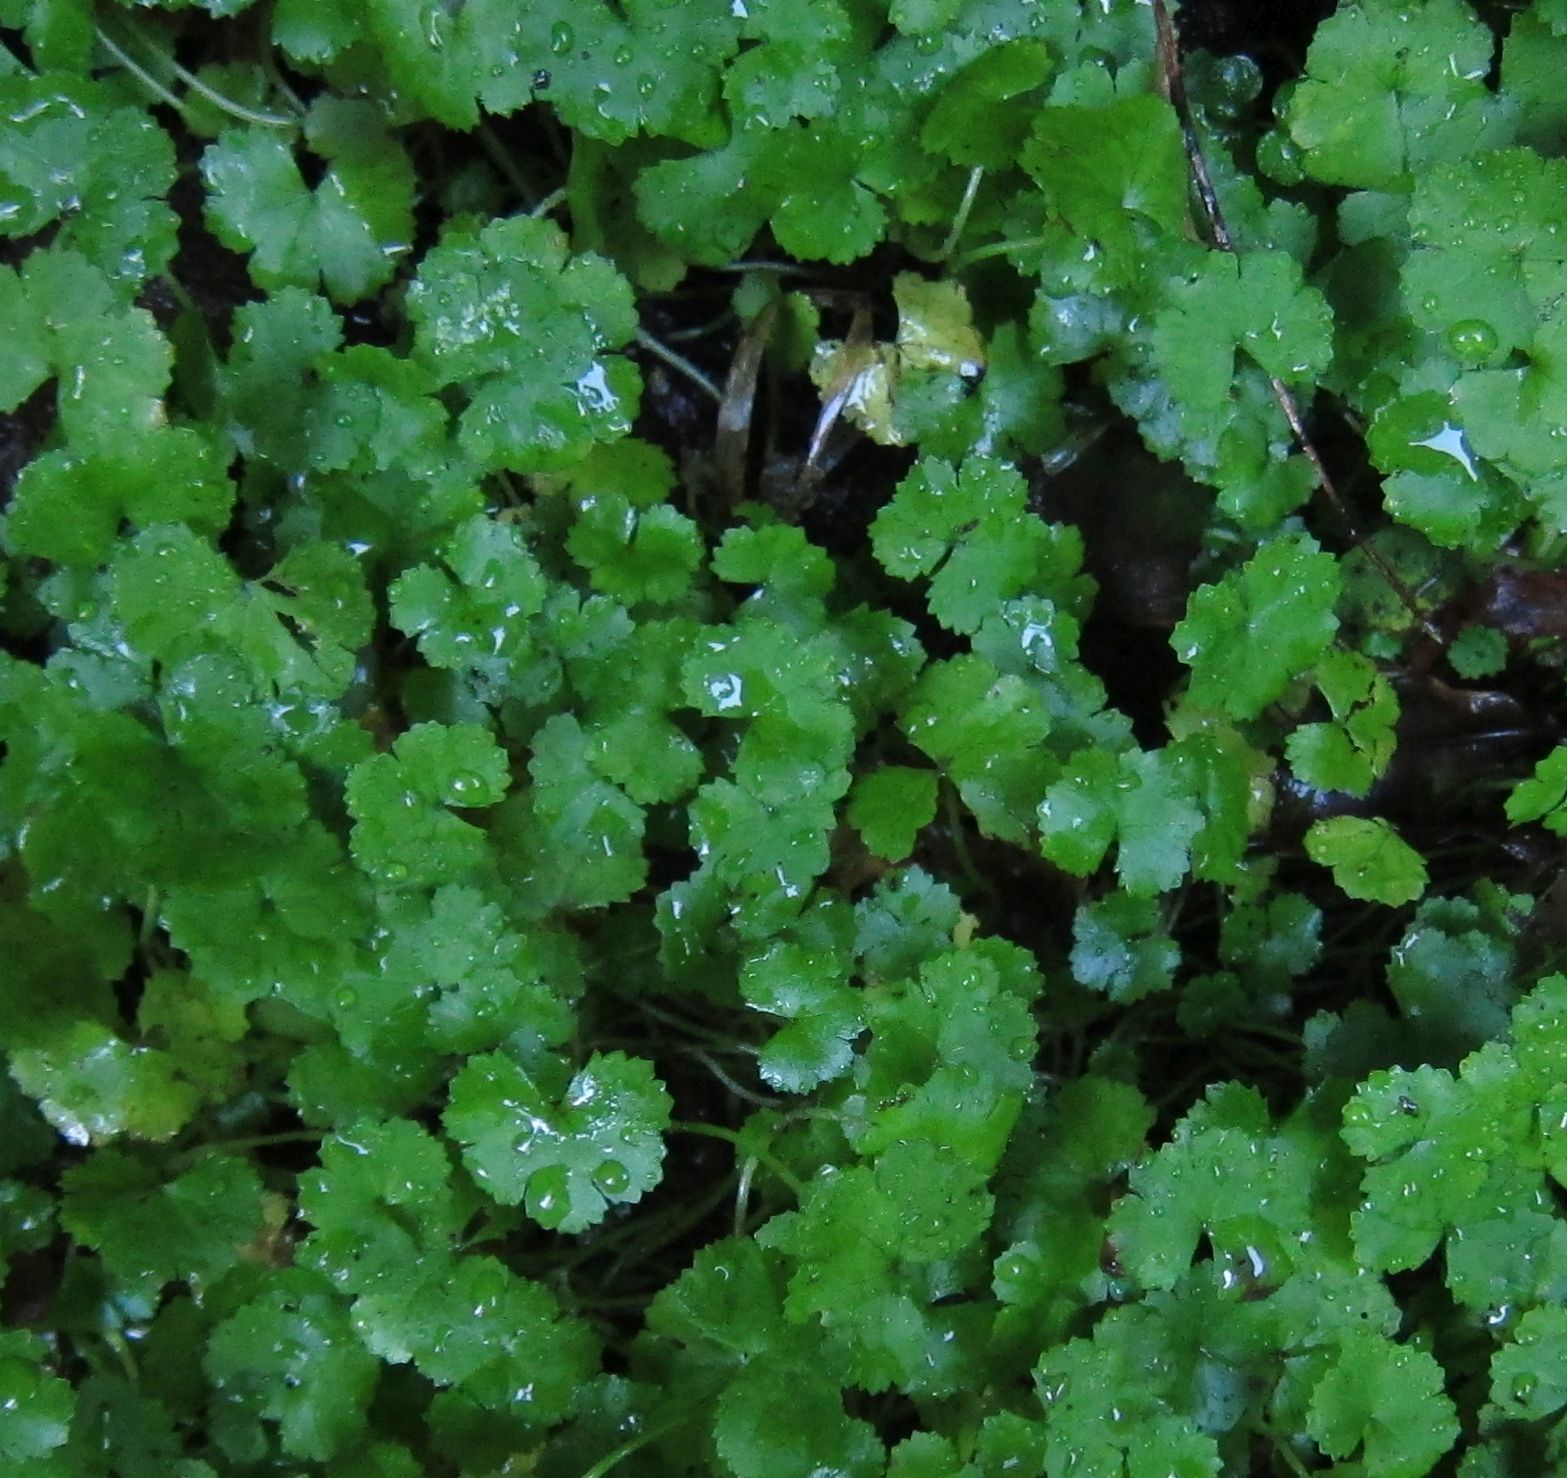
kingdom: Plantae
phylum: Tracheophyta
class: Magnoliopsida
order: Apiales
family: Araliaceae
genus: Hydrocotyle
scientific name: Hydrocotyle heteromeria
